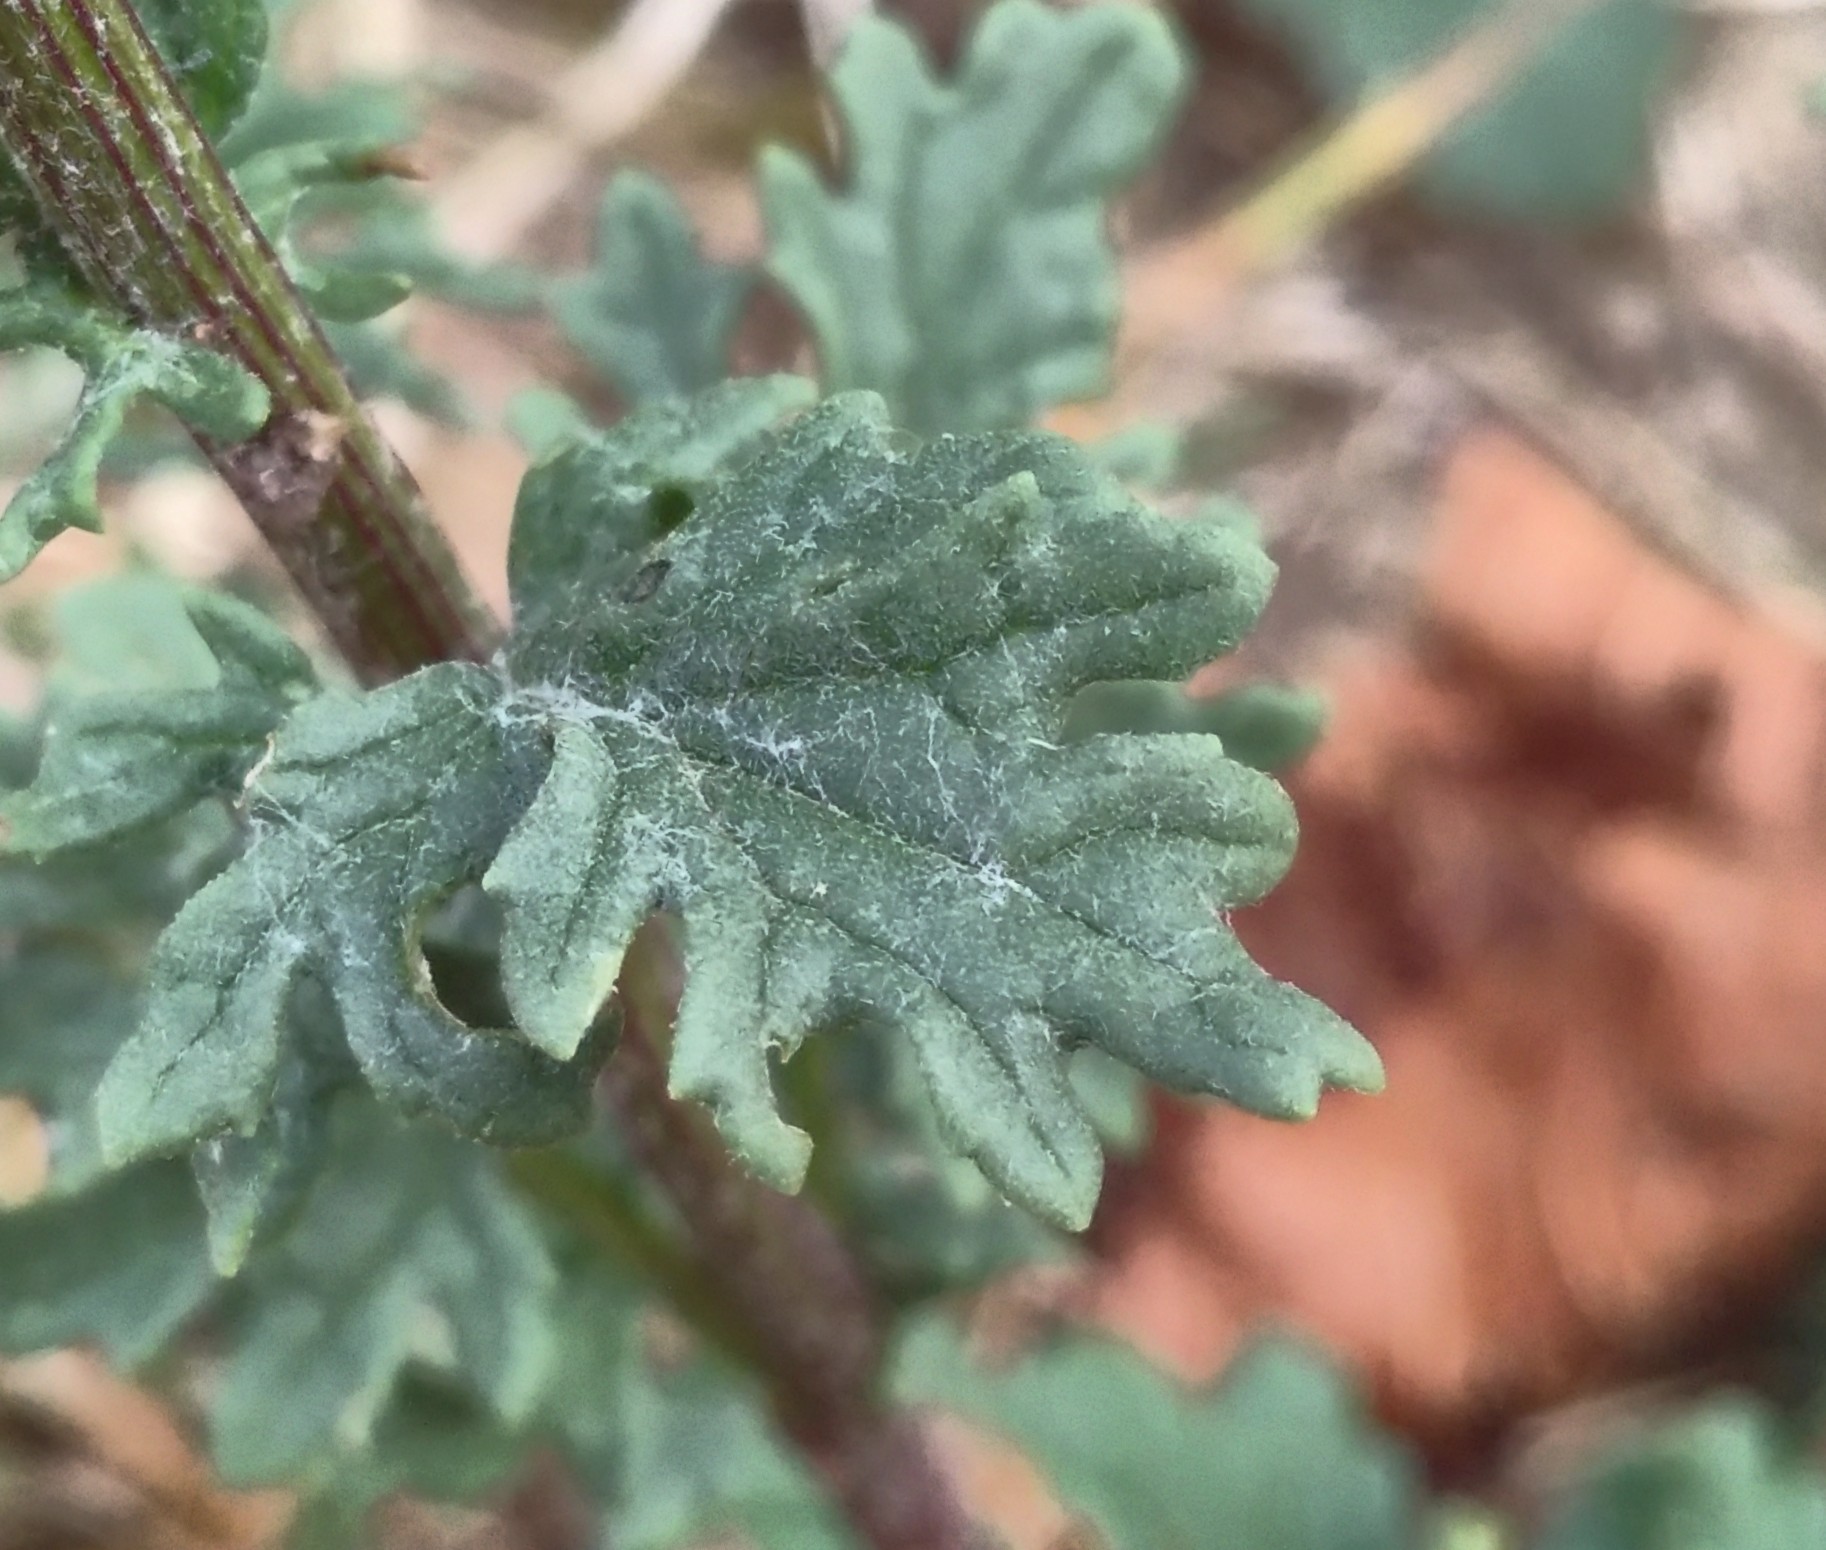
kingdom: Plantae
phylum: Tracheophyta
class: Magnoliopsida
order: Asterales
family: Asteraceae
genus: Jacobaea
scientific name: Jacobaea vulgaris
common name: Stinking willie
